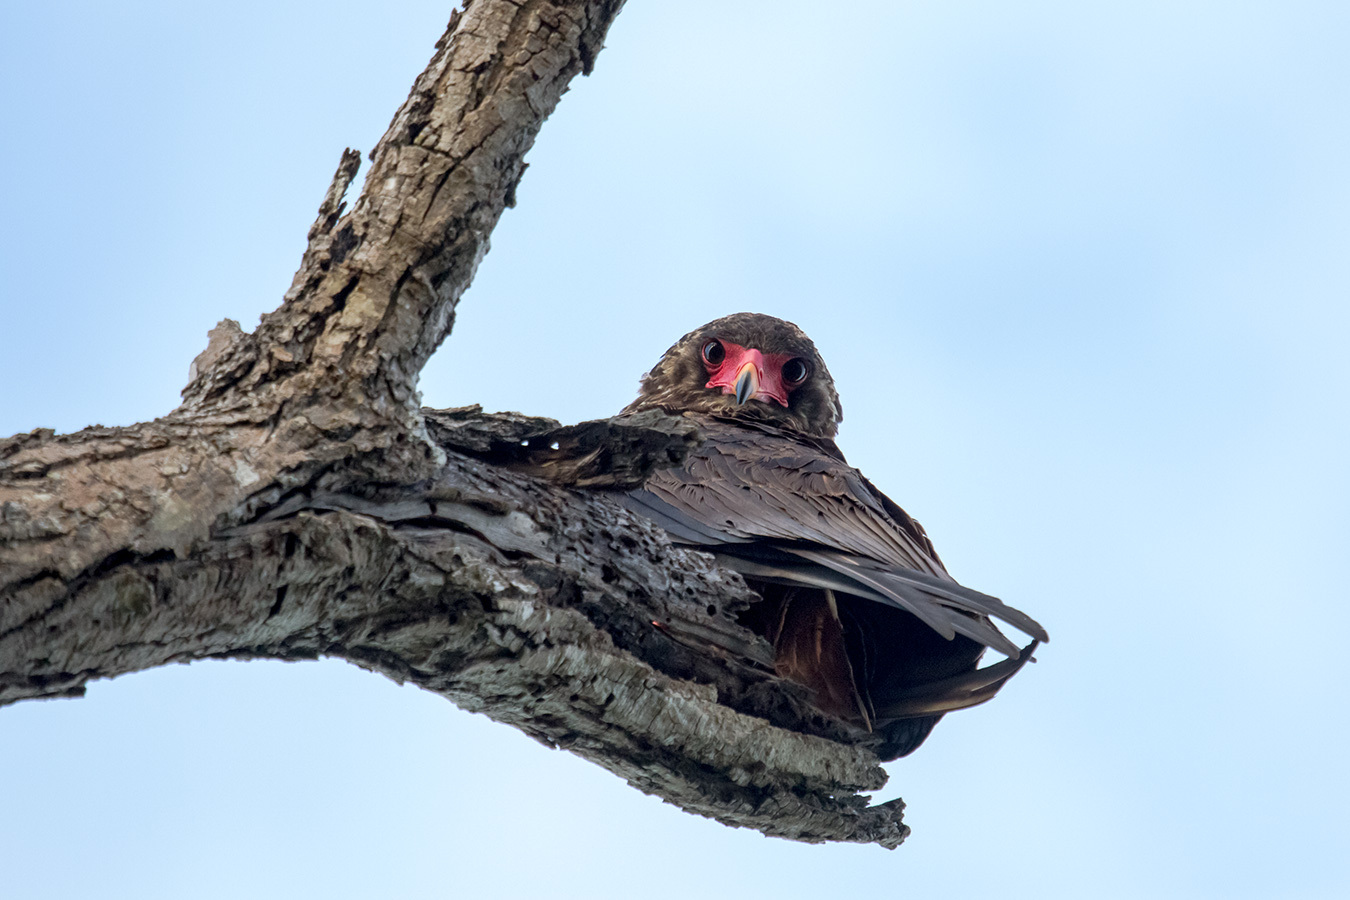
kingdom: Animalia
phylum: Chordata
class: Aves
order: Accipitriformes
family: Accipitridae
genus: Terathopius
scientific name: Terathopius ecaudatus
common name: Bateleur
